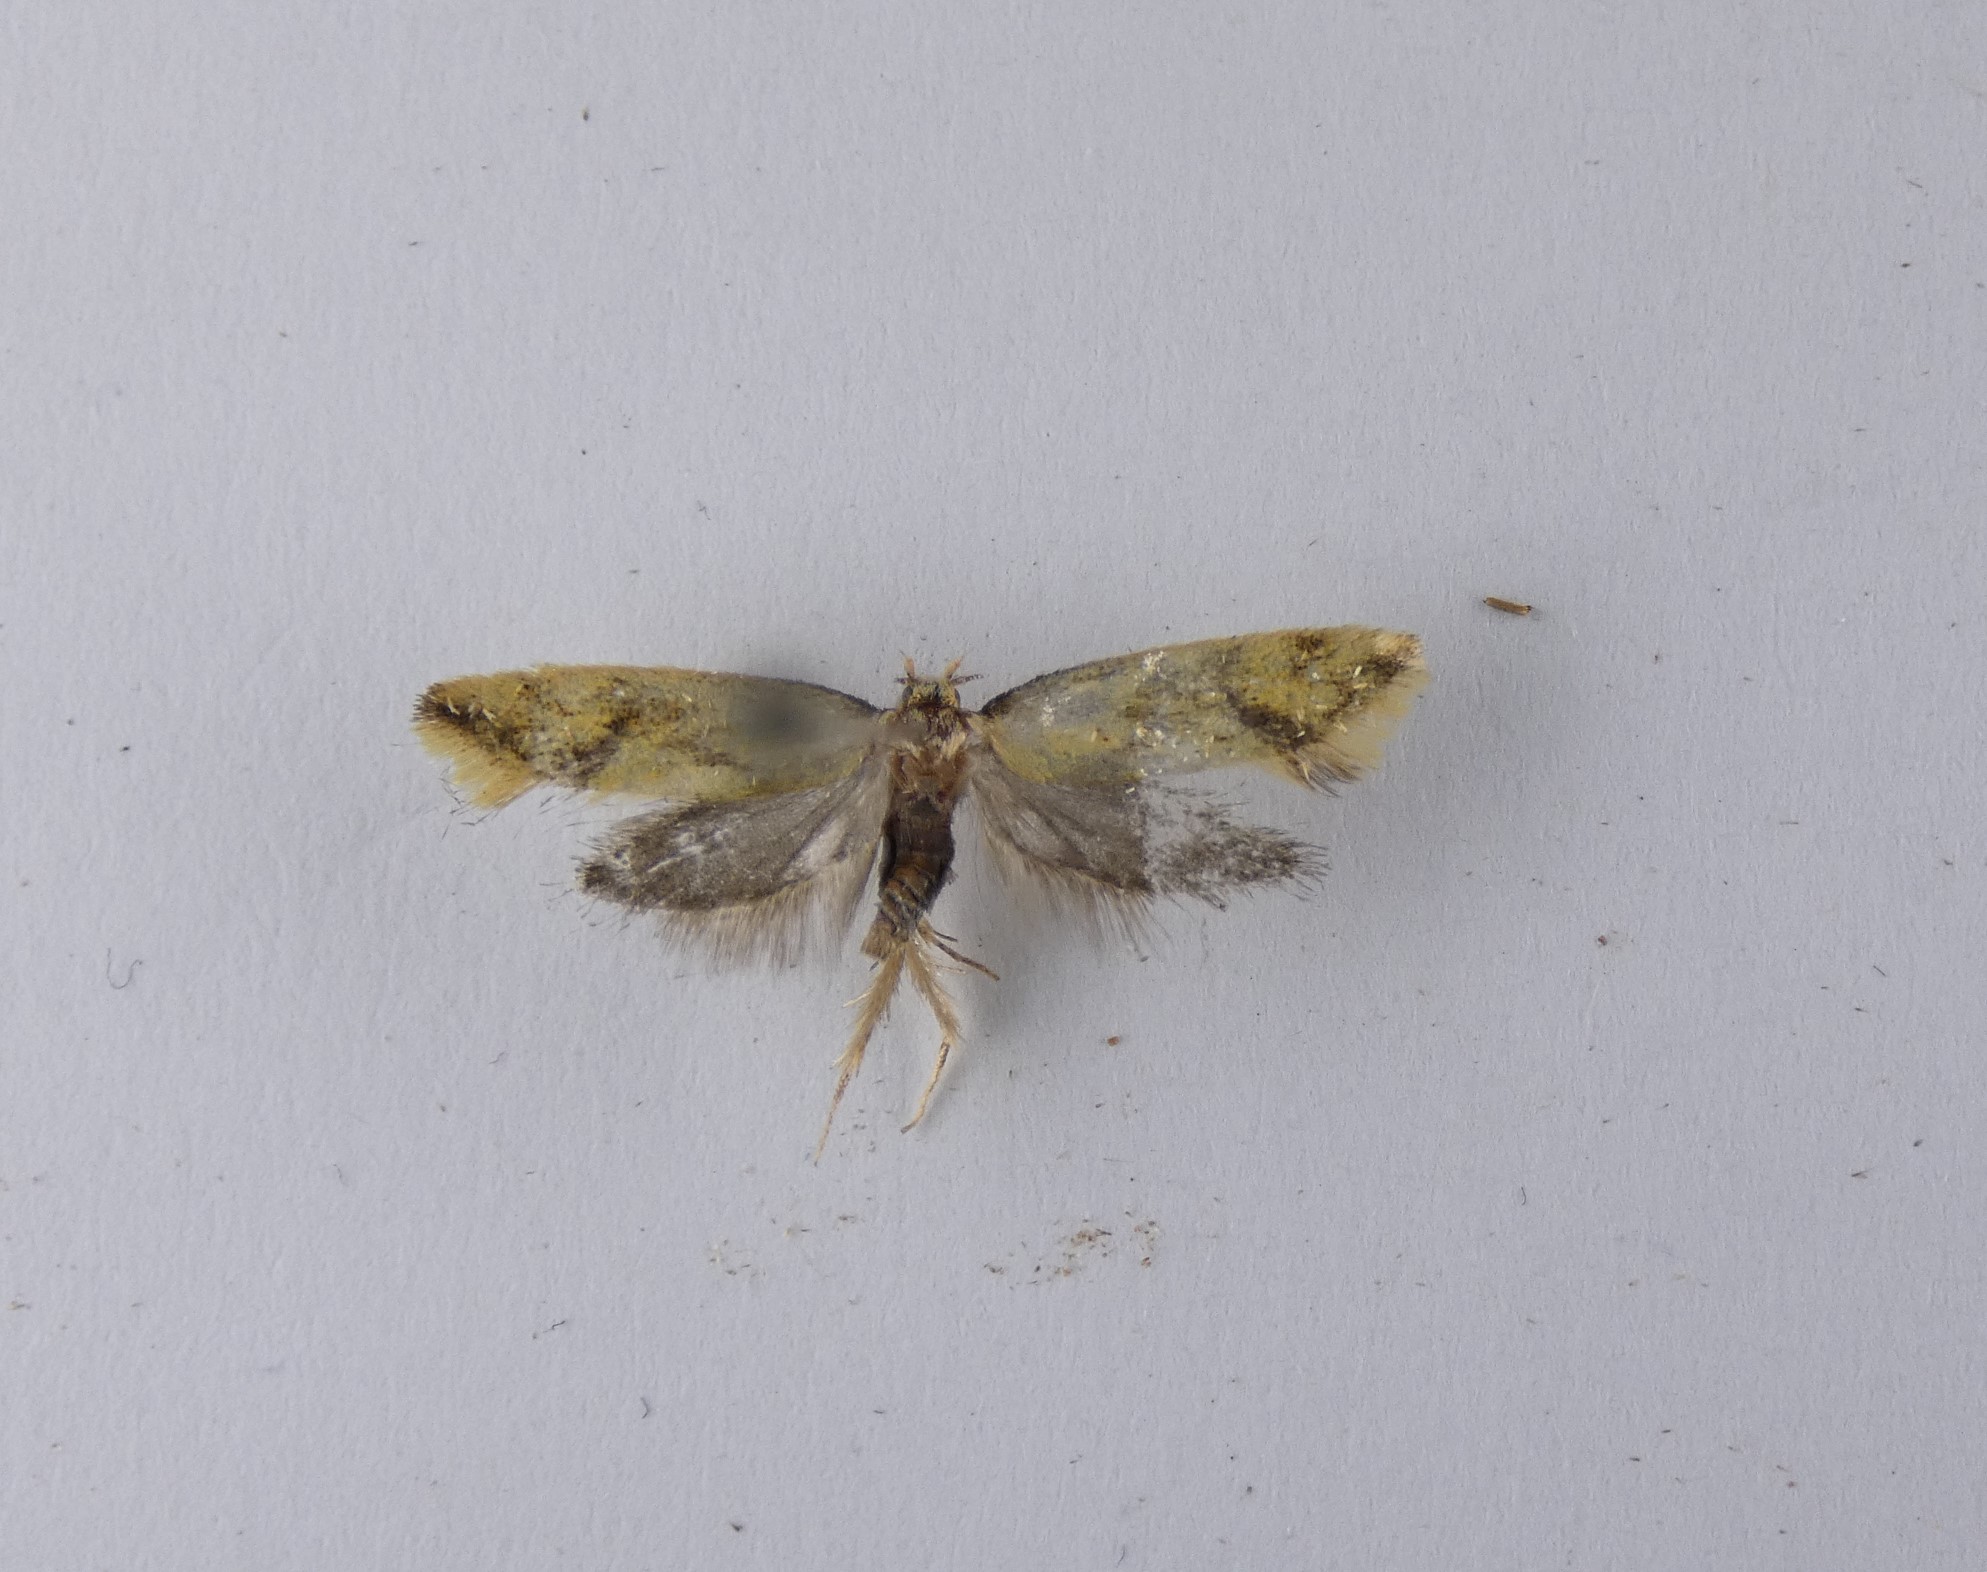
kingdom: Animalia
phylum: Arthropoda
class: Insecta
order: Lepidoptera
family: Oecophoridae
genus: Tingena
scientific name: Tingena actinias
